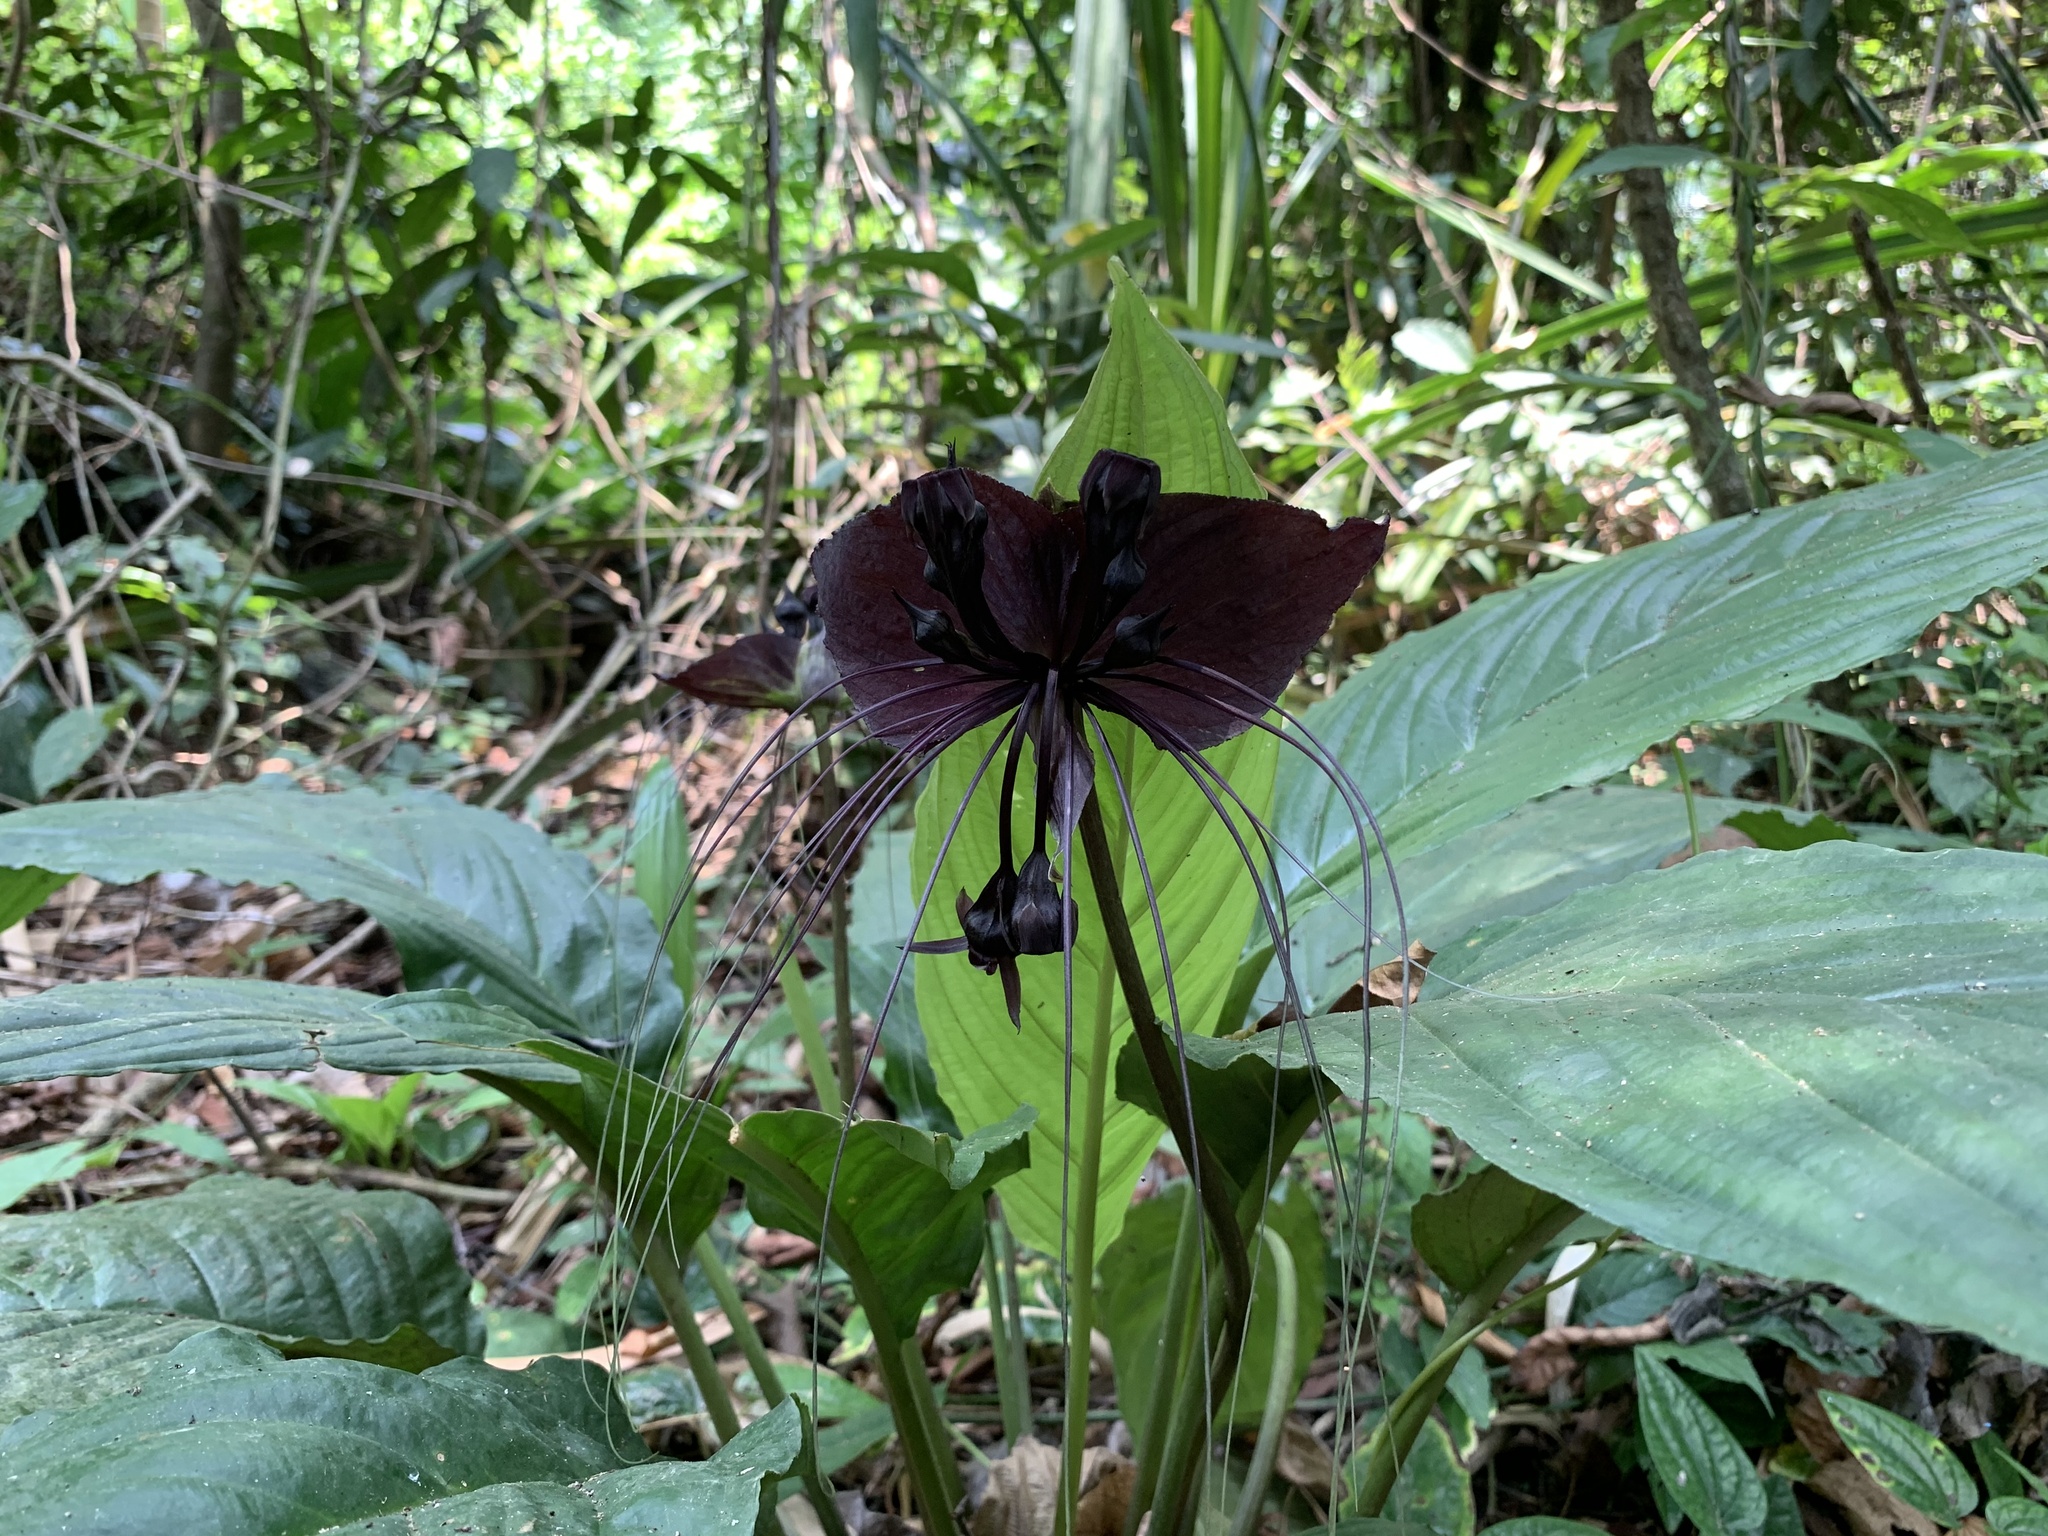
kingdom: Plantae
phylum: Tracheophyta
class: Liliopsida
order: Dioscoreales
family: Dioscoreaceae
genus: Tacca
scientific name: Tacca chantrieri
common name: Cat's-whiskers
